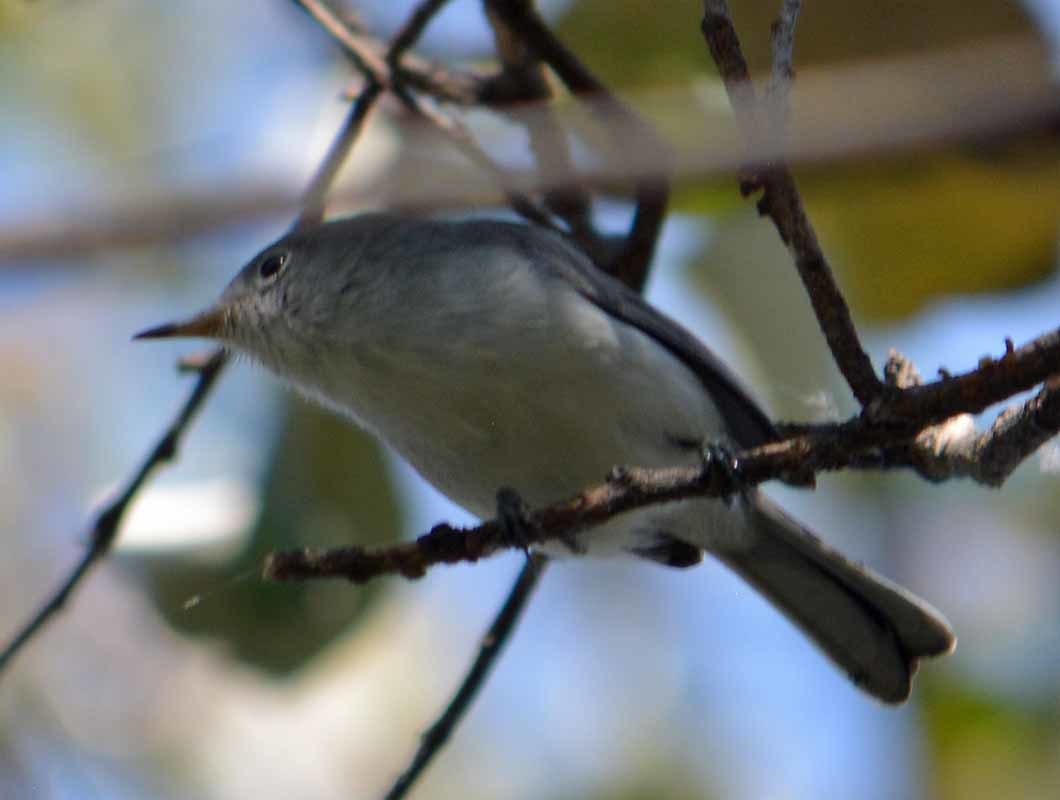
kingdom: Animalia
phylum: Chordata
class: Aves
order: Passeriformes
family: Polioptilidae
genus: Polioptila
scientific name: Polioptila caerulea
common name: Blue-gray gnatcatcher
